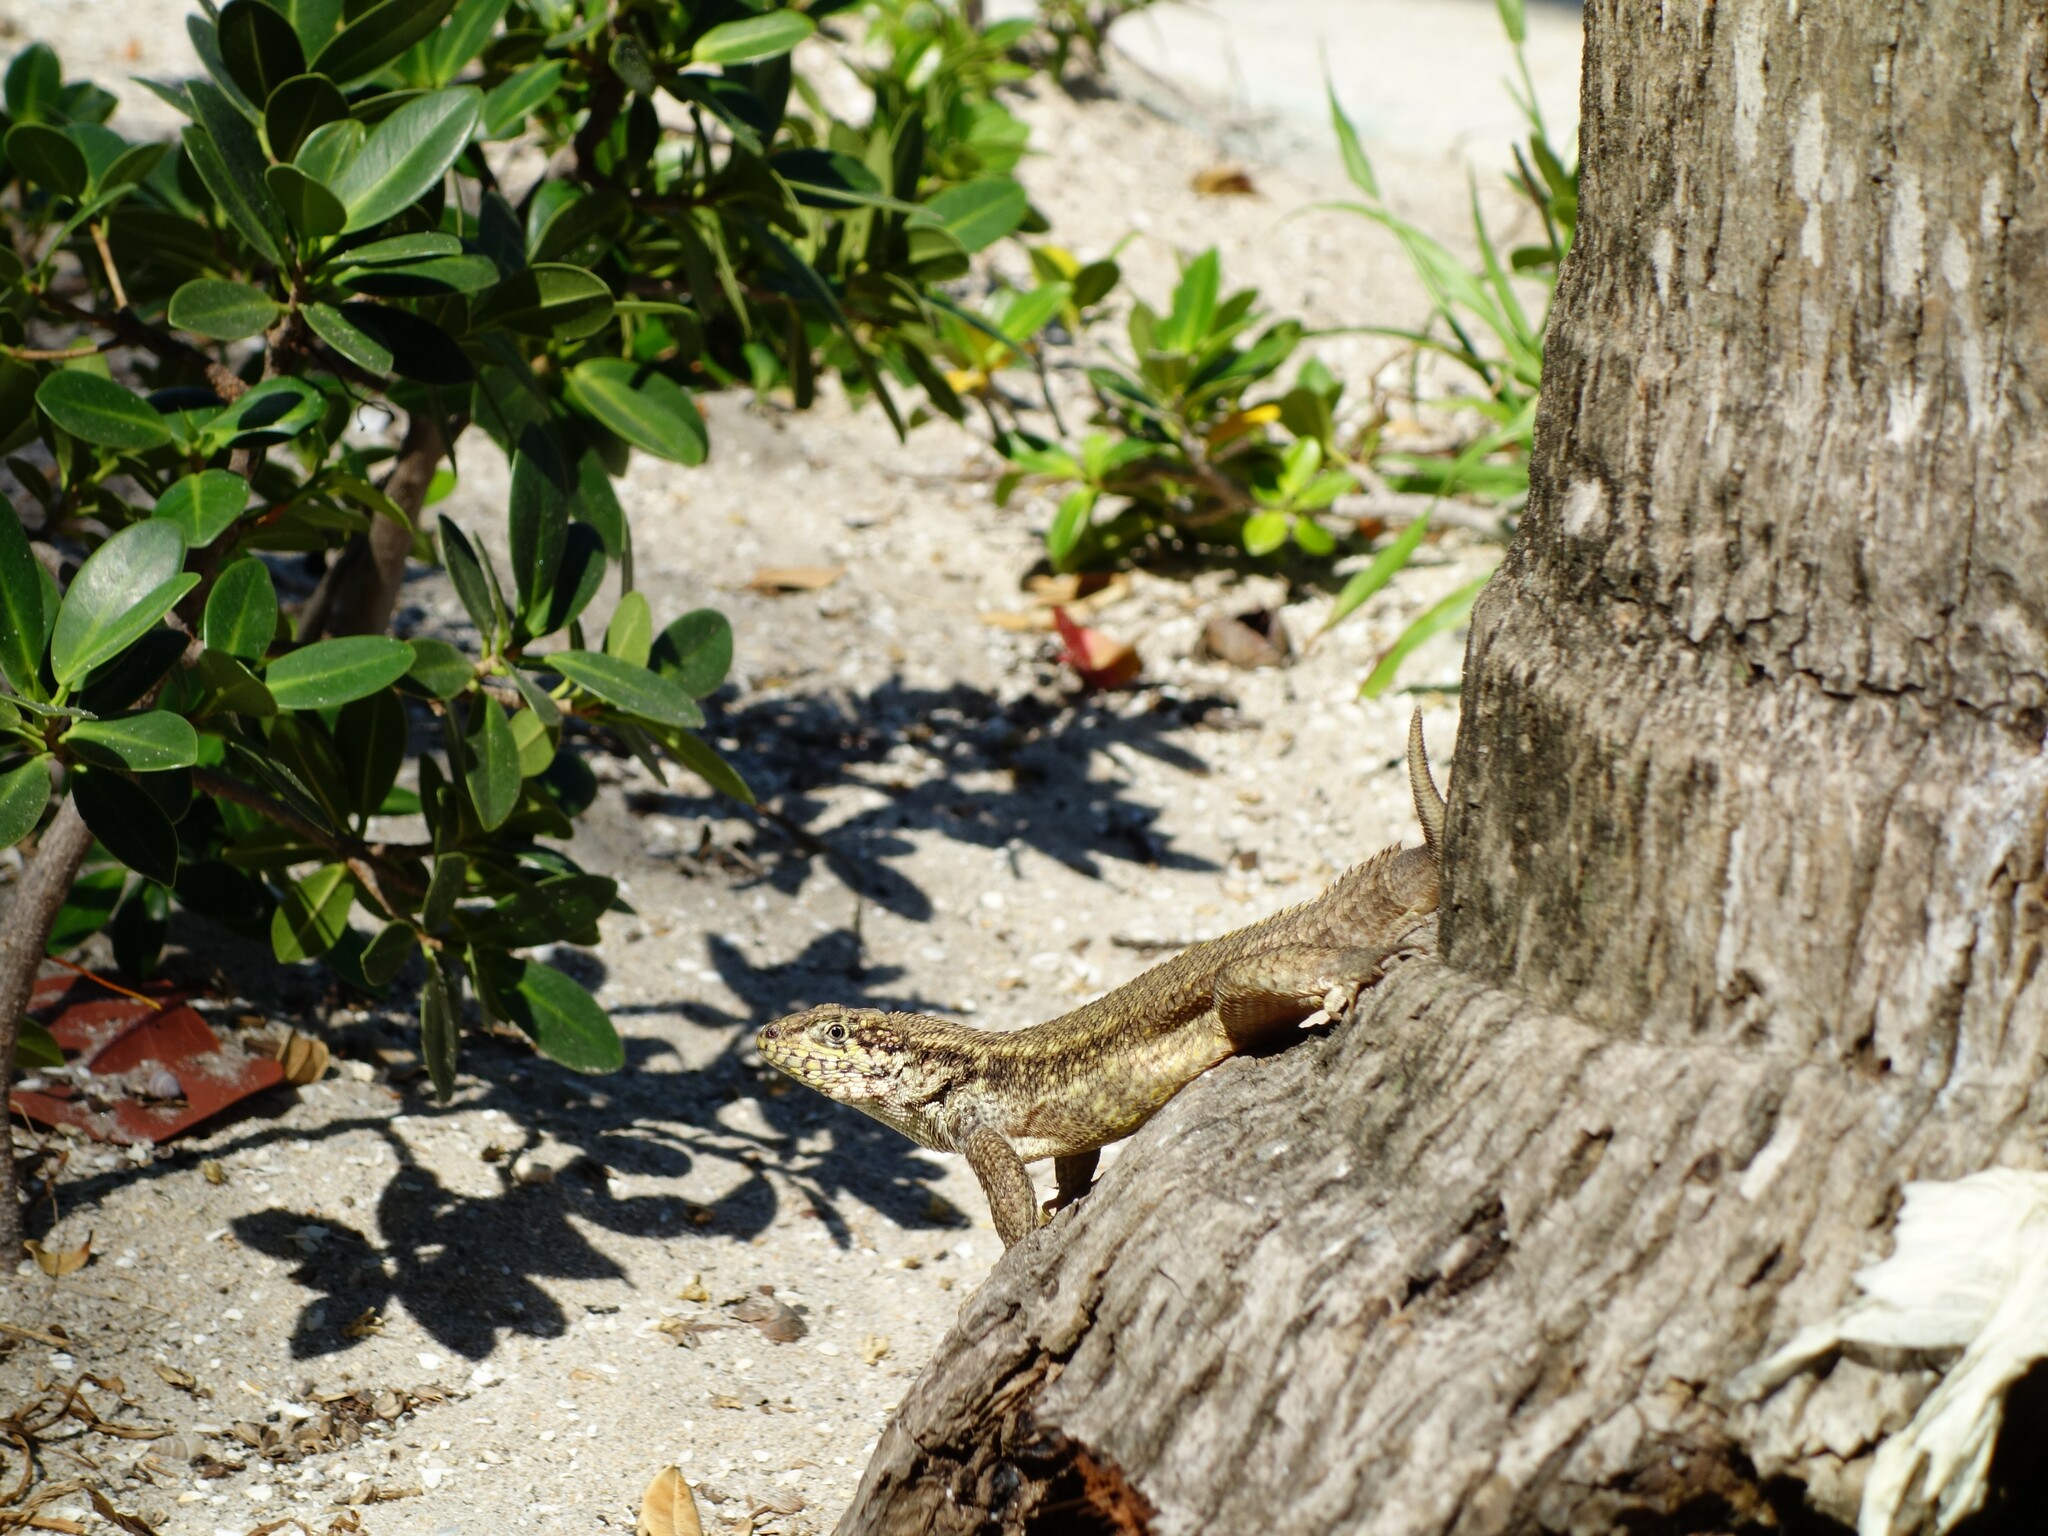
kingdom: Animalia
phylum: Chordata
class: Squamata
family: Leiocephalidae
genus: Leiocephalus
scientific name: Leiocephalus carinatus
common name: Northern curly-tailed lizard
